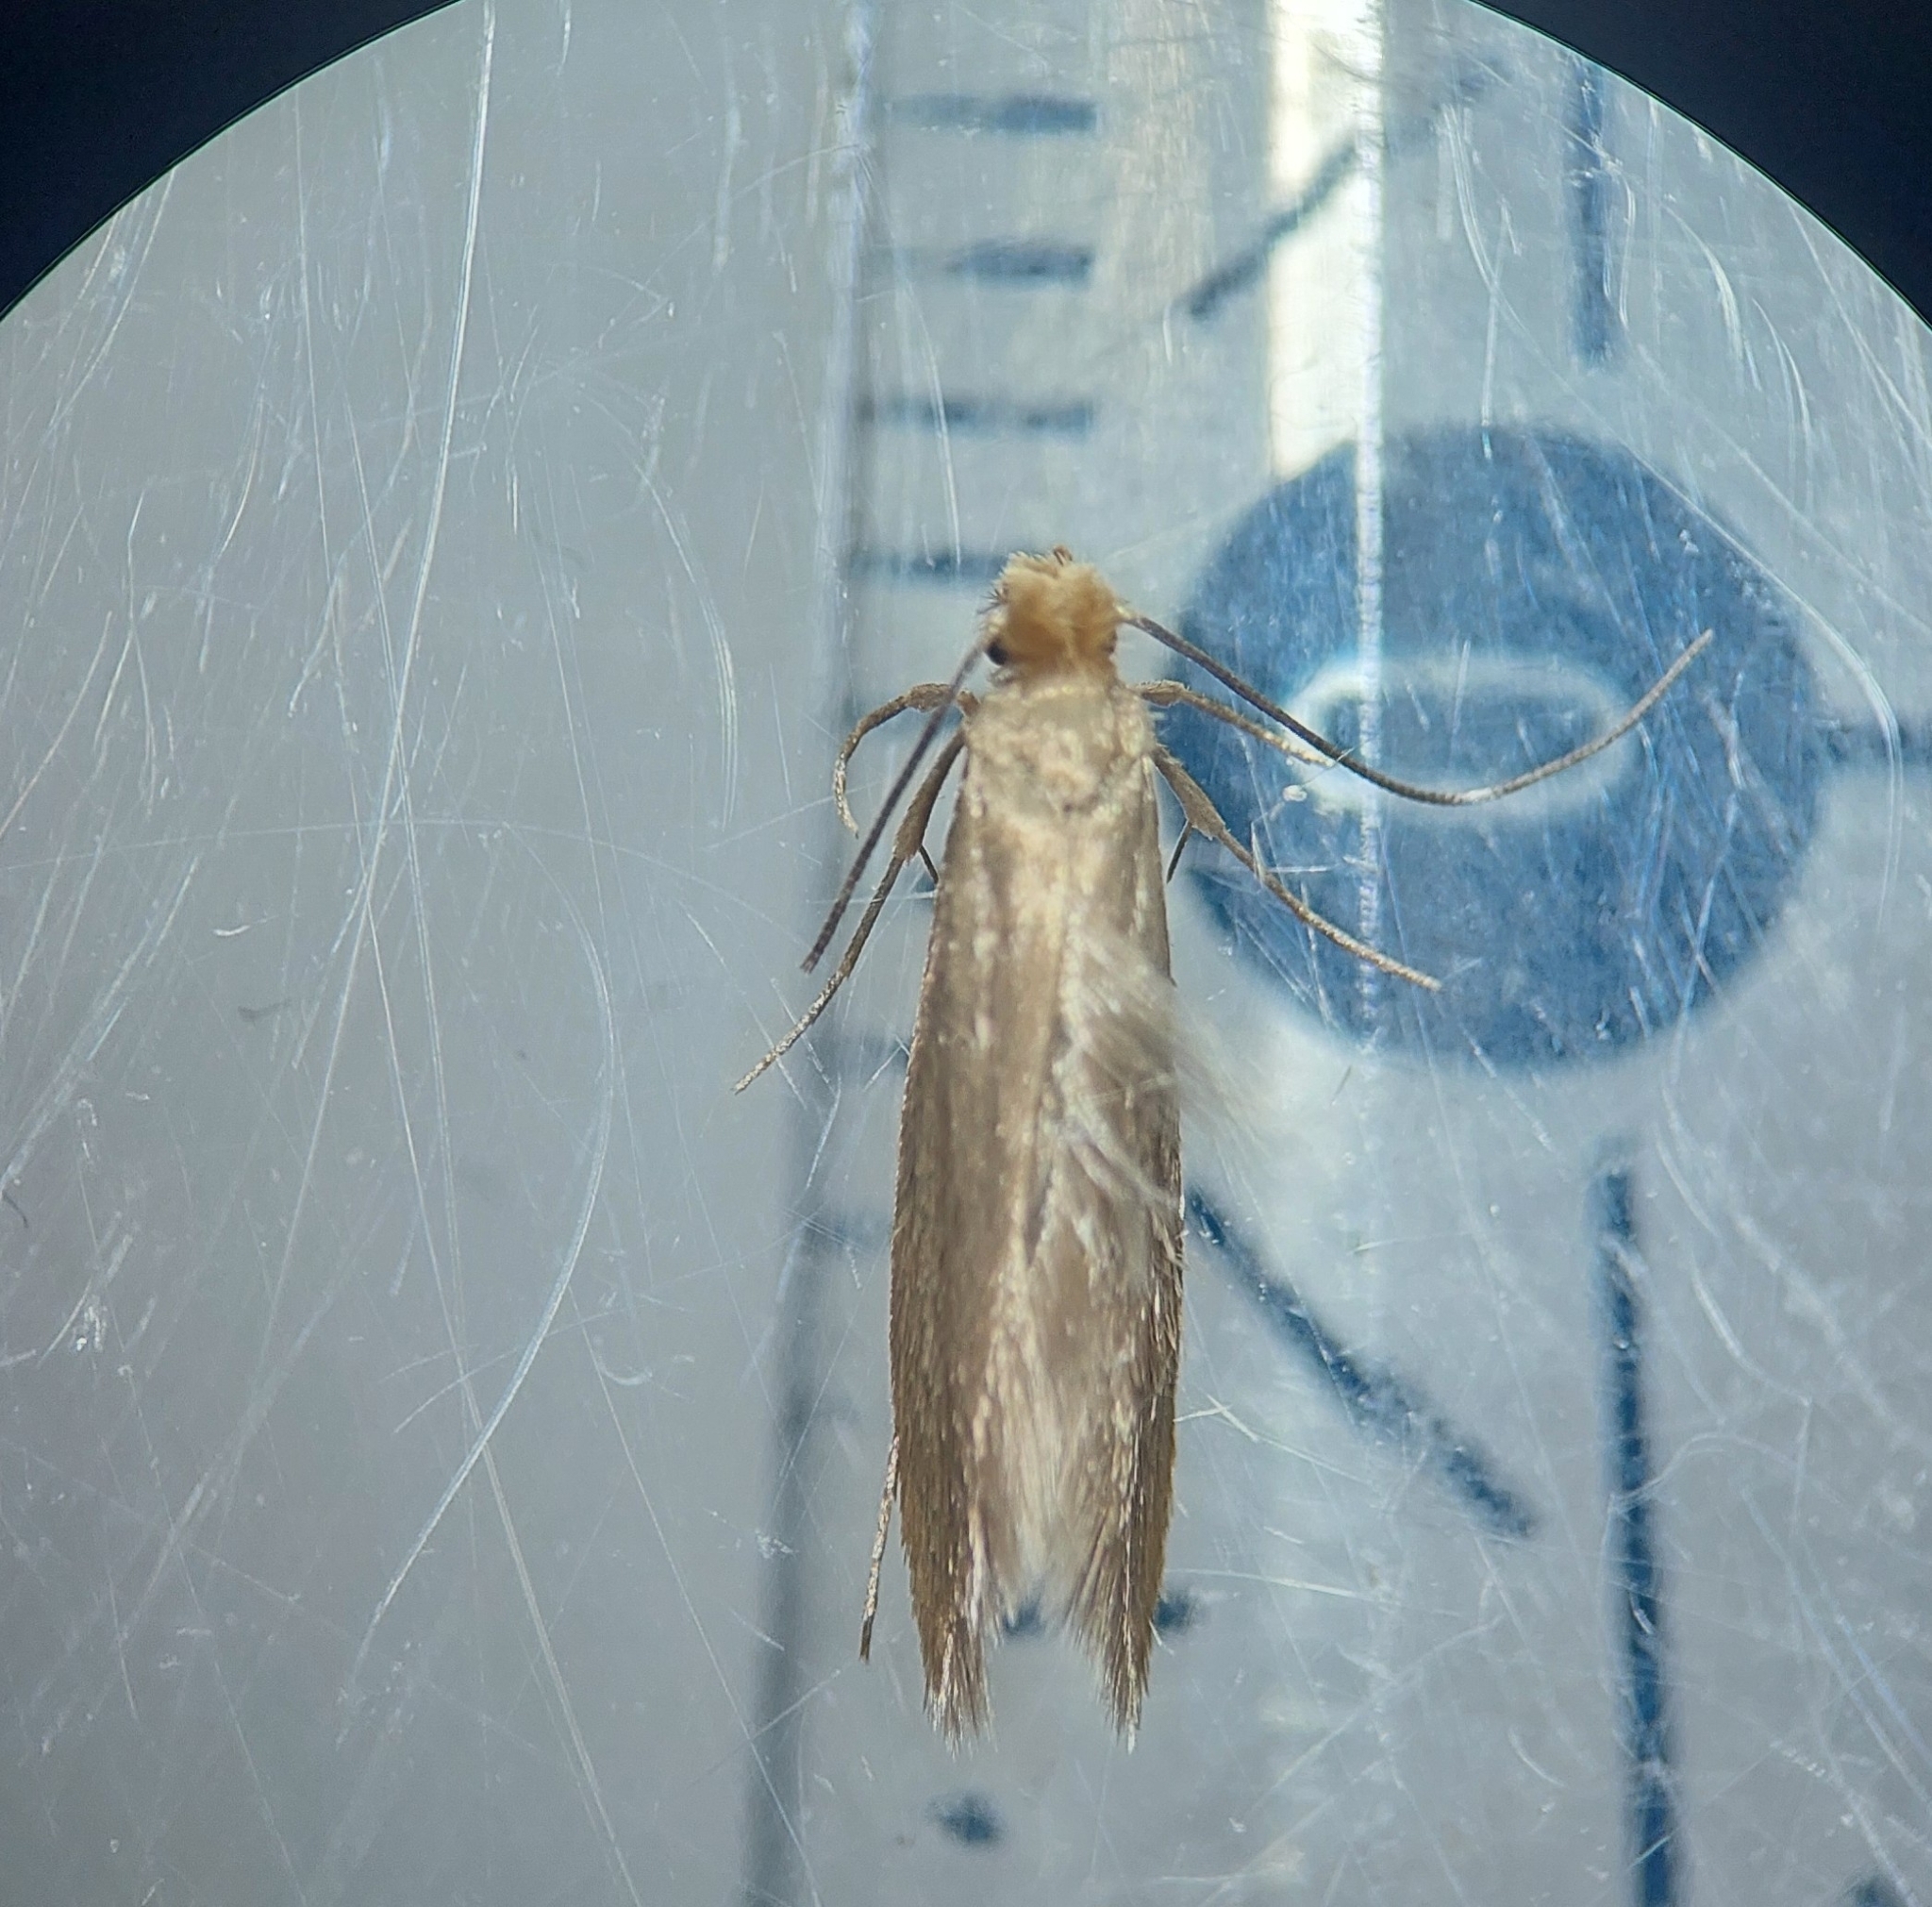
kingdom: Animalia
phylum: Arthropoda
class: Insecta
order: Lepidoptera
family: Tineidae
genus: Tineola
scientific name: Tineola bisselliella
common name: Webbing clothes moth
